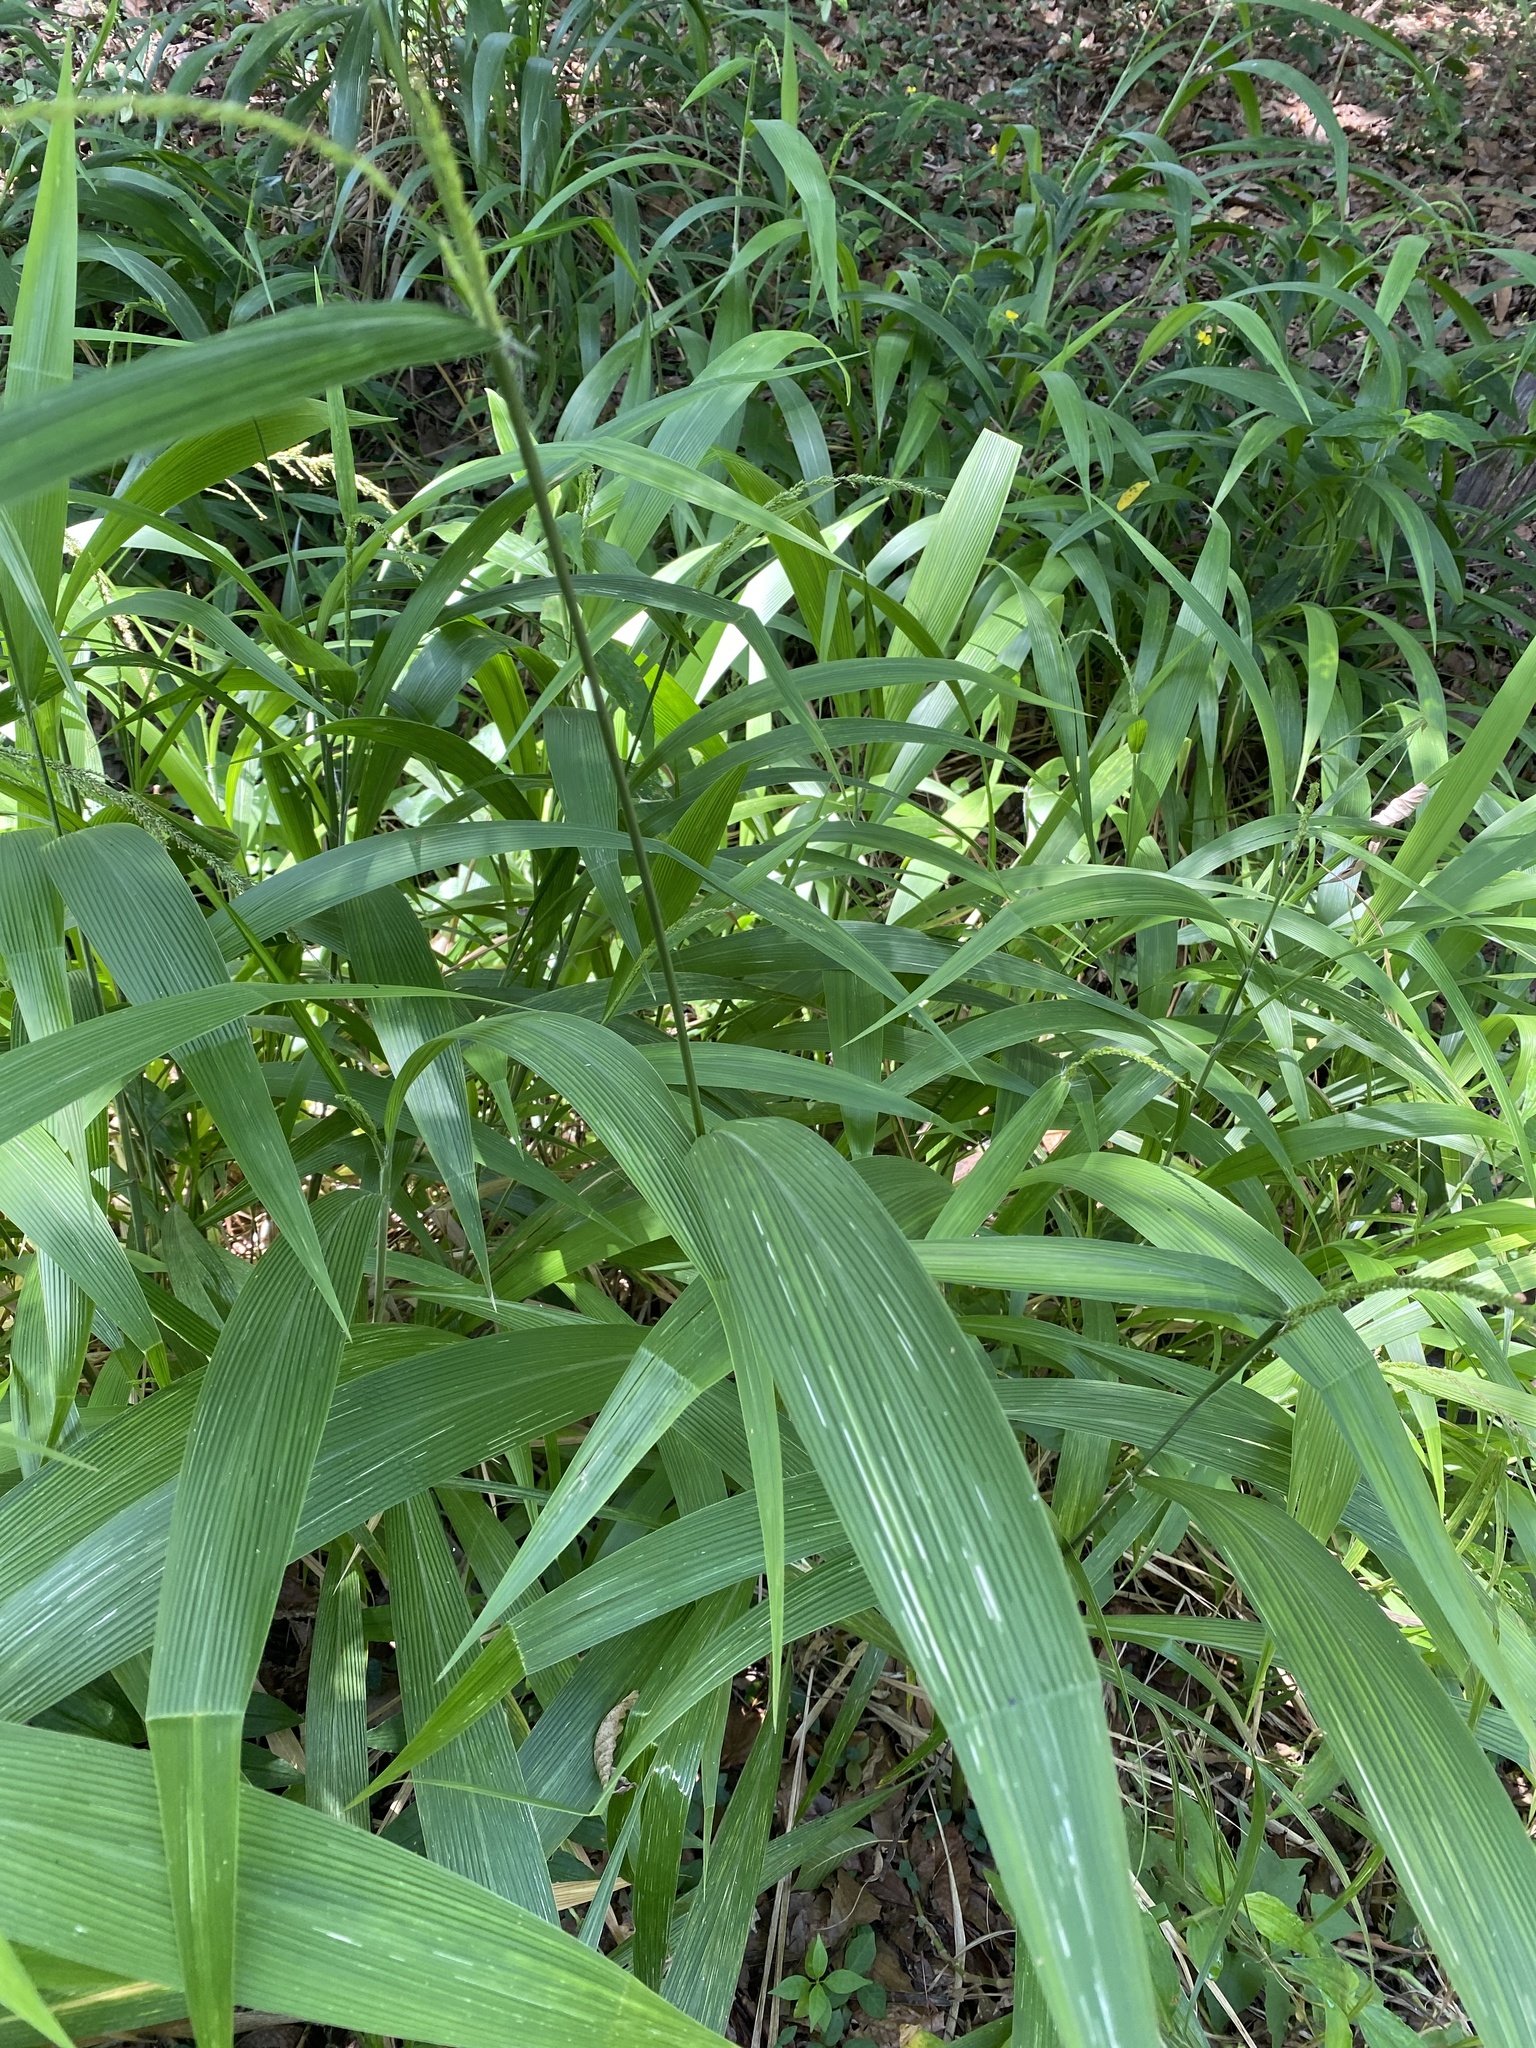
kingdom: Plantae
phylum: Tracheophyta
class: Liliopsida
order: Poales
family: Poaceae
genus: Setaria
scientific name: Setaria megaphylla
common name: Bigleaf bristlegrass
